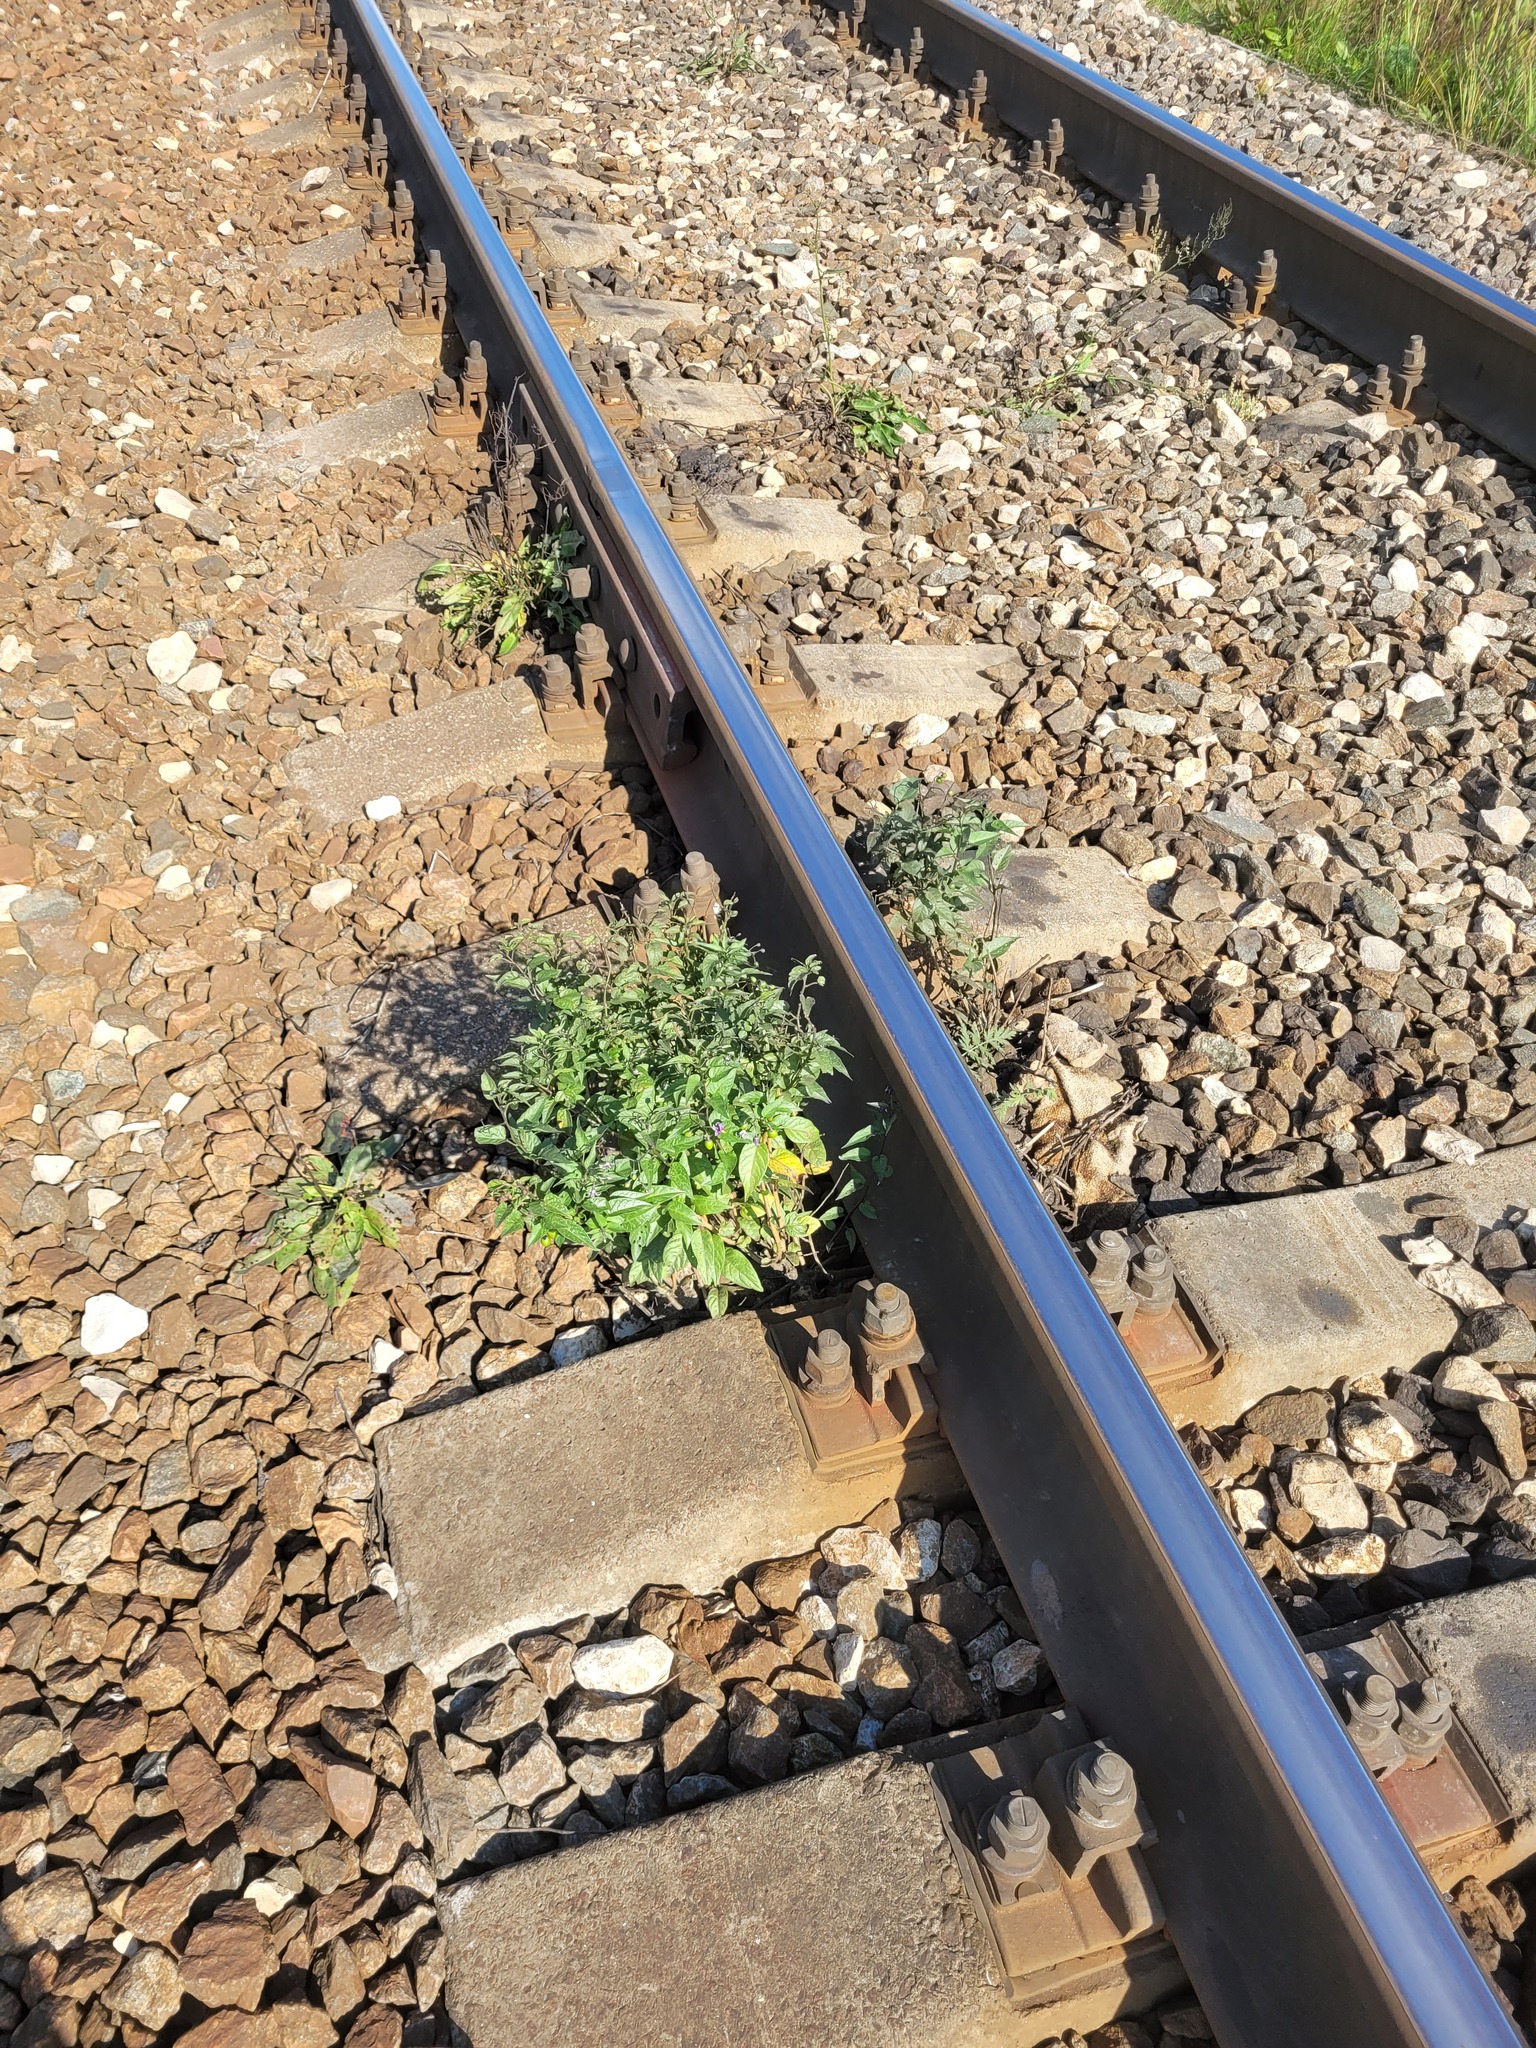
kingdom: Plantae
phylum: Tracheophyta
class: Magnoliopsida
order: Solanales
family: Solanaceae
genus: Solanum
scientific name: Solanum dulcamara
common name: Climbing nightshade
